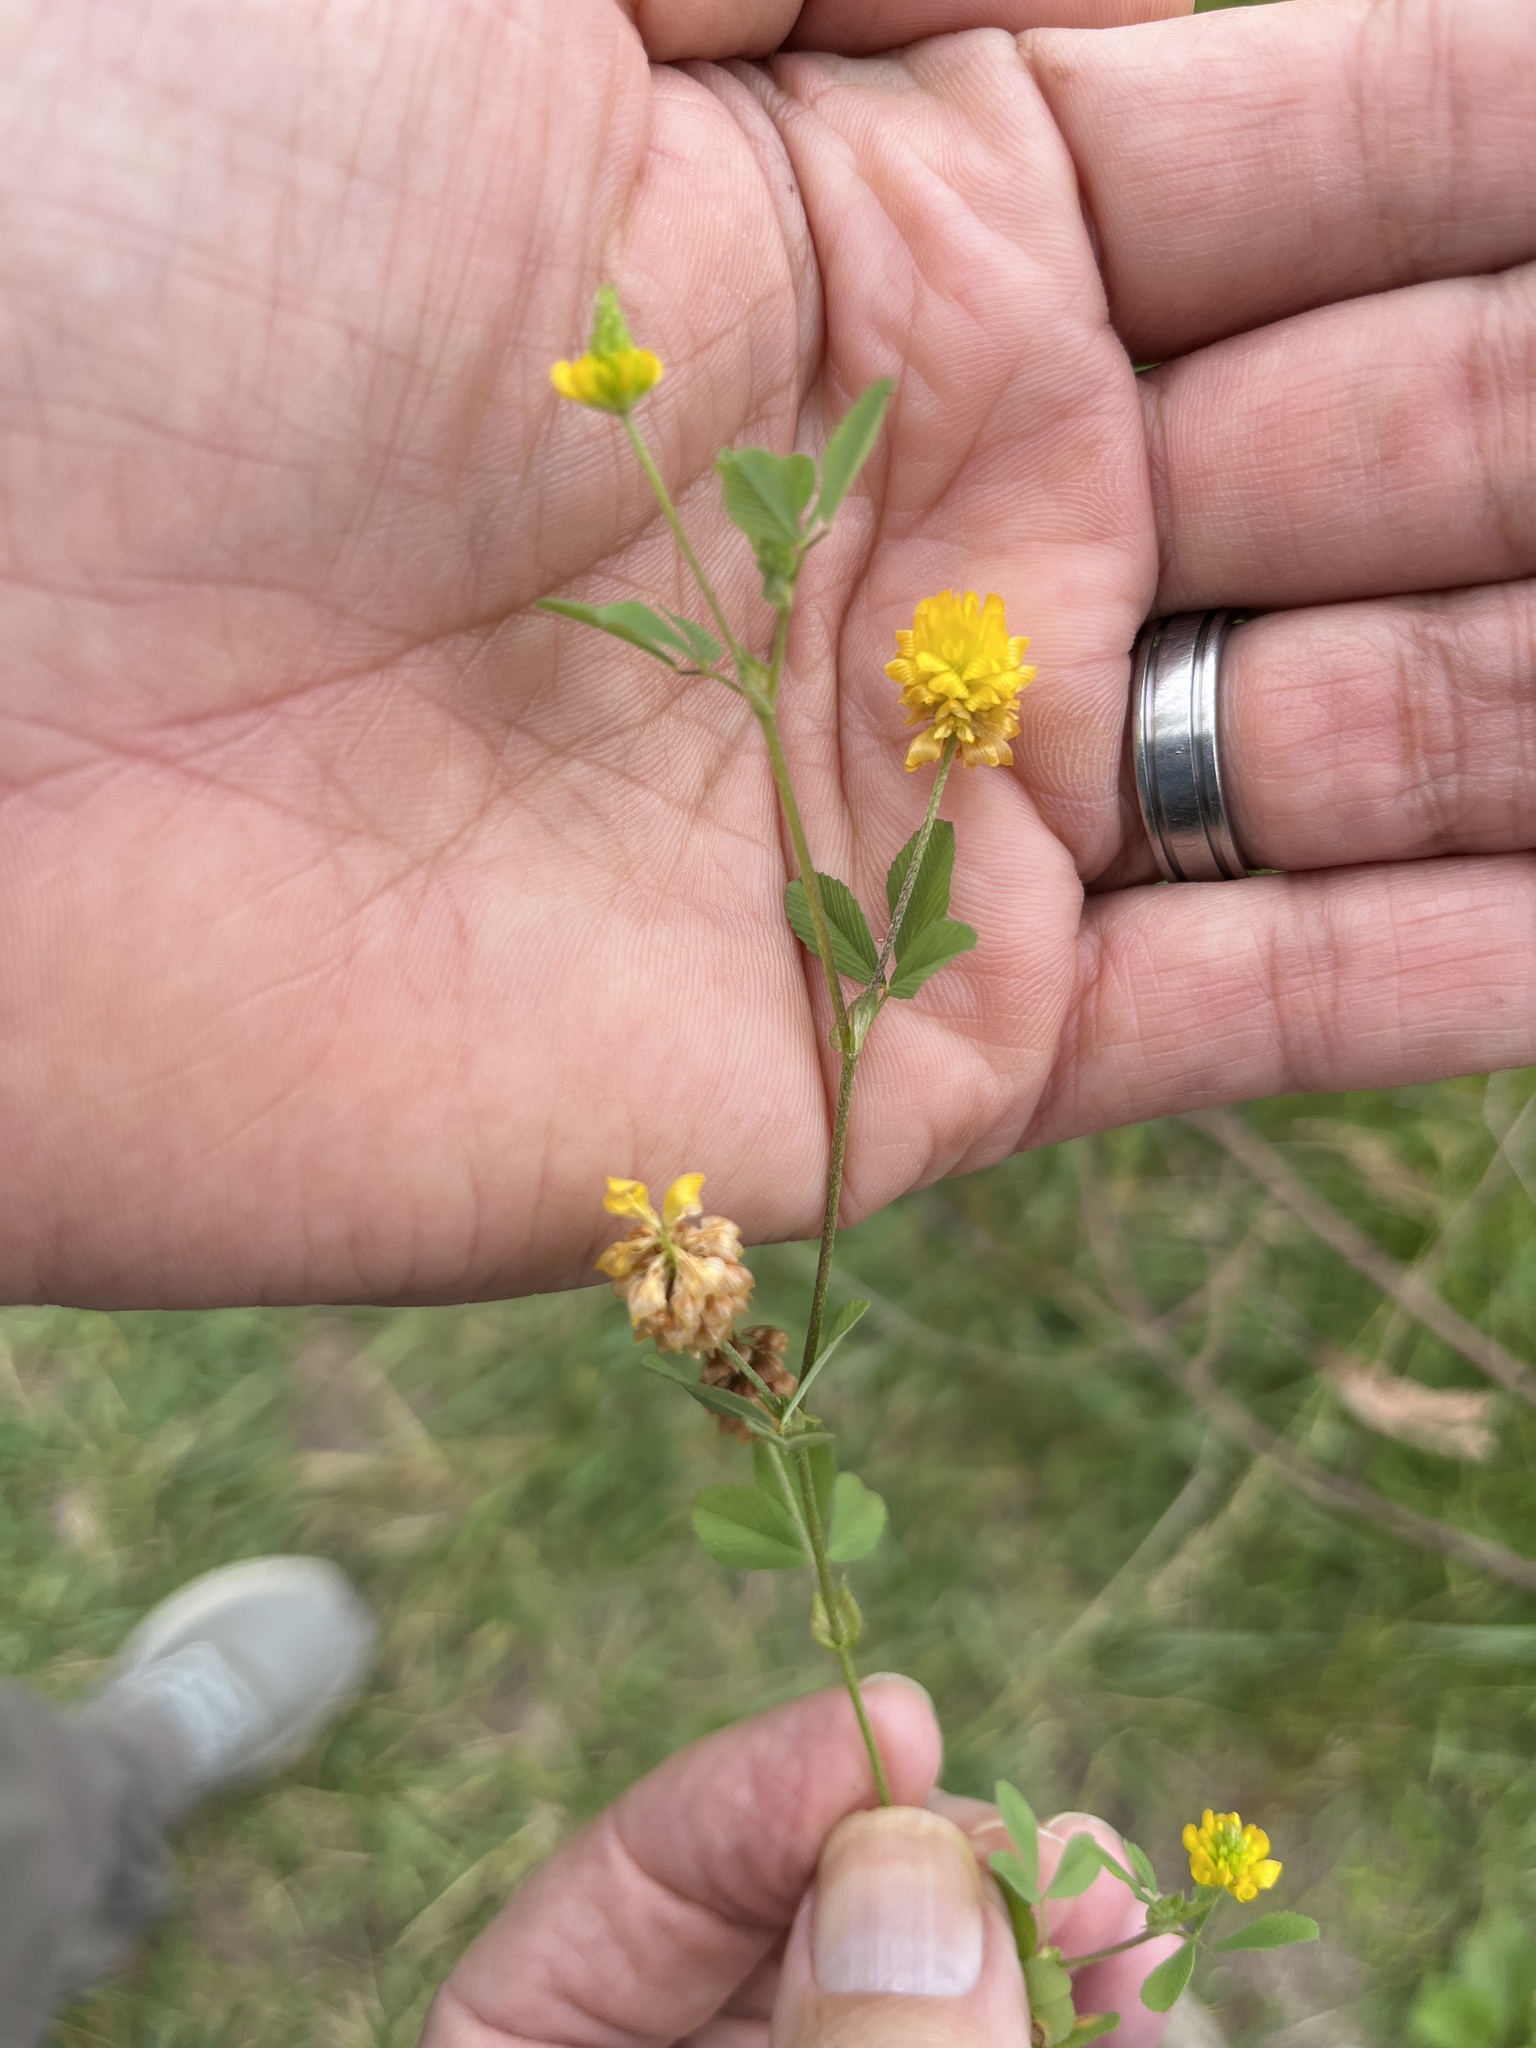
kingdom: Plantae
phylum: Tracheophyta
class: Magnoliopsida
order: Fabales
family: Fabaceae
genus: Trifolium
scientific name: Trifolium campestre
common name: Field clover
